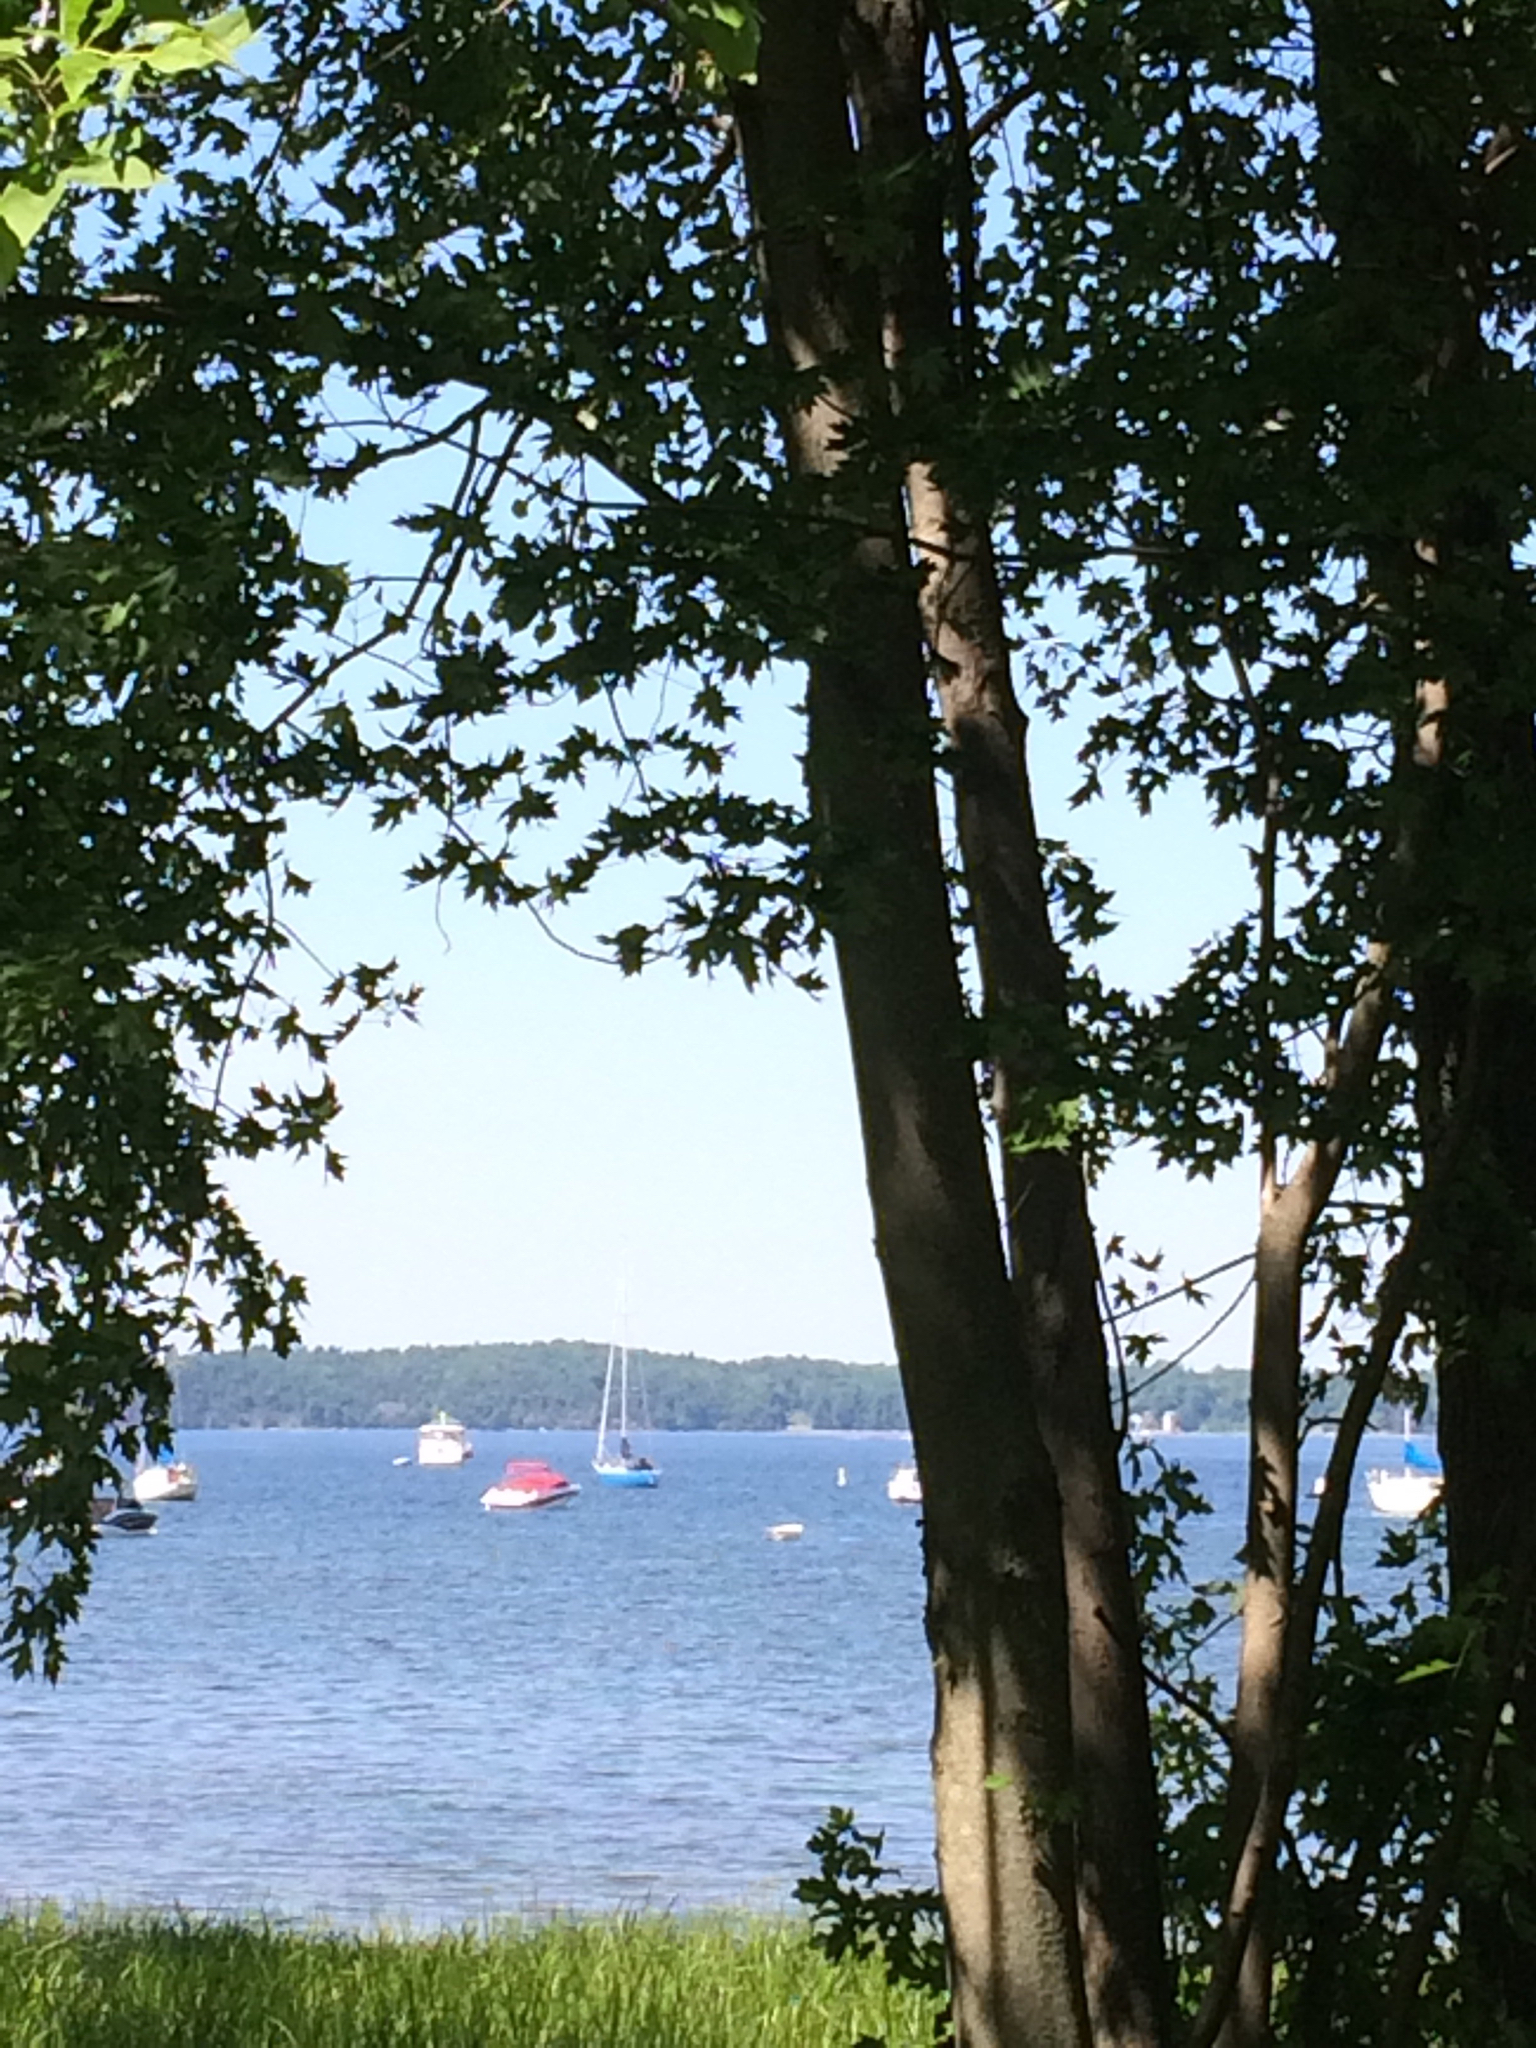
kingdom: Plantae
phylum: Tracheophyta
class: Magnoliopsida
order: Sapindales
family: Sapindaceae
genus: Acer
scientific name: Acer saccharinum
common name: Silver maple
